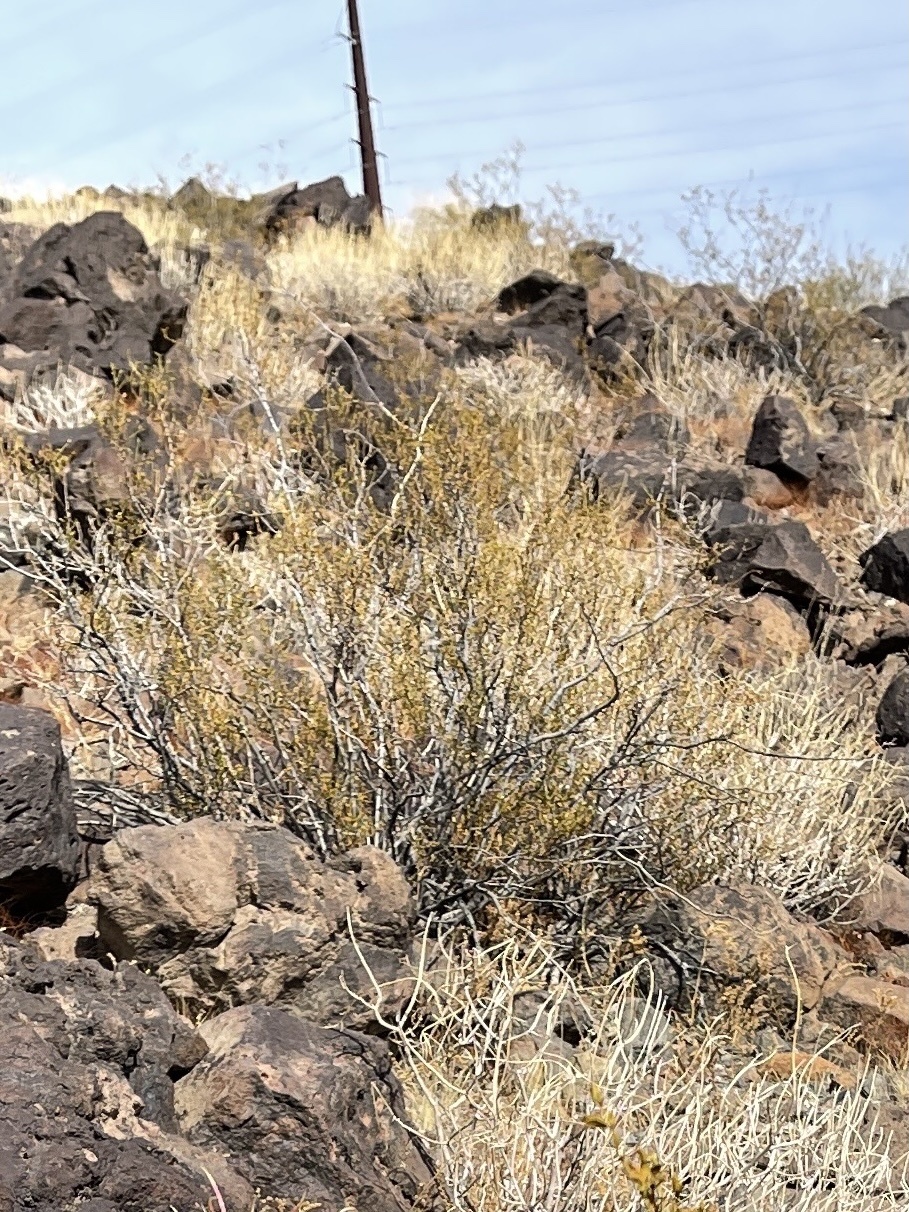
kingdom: Plantae
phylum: Tracheophyta
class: Magnoliopsida
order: Zygophyllales
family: Zygophyllaceae
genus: Larrea
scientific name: Larrea tridentata
